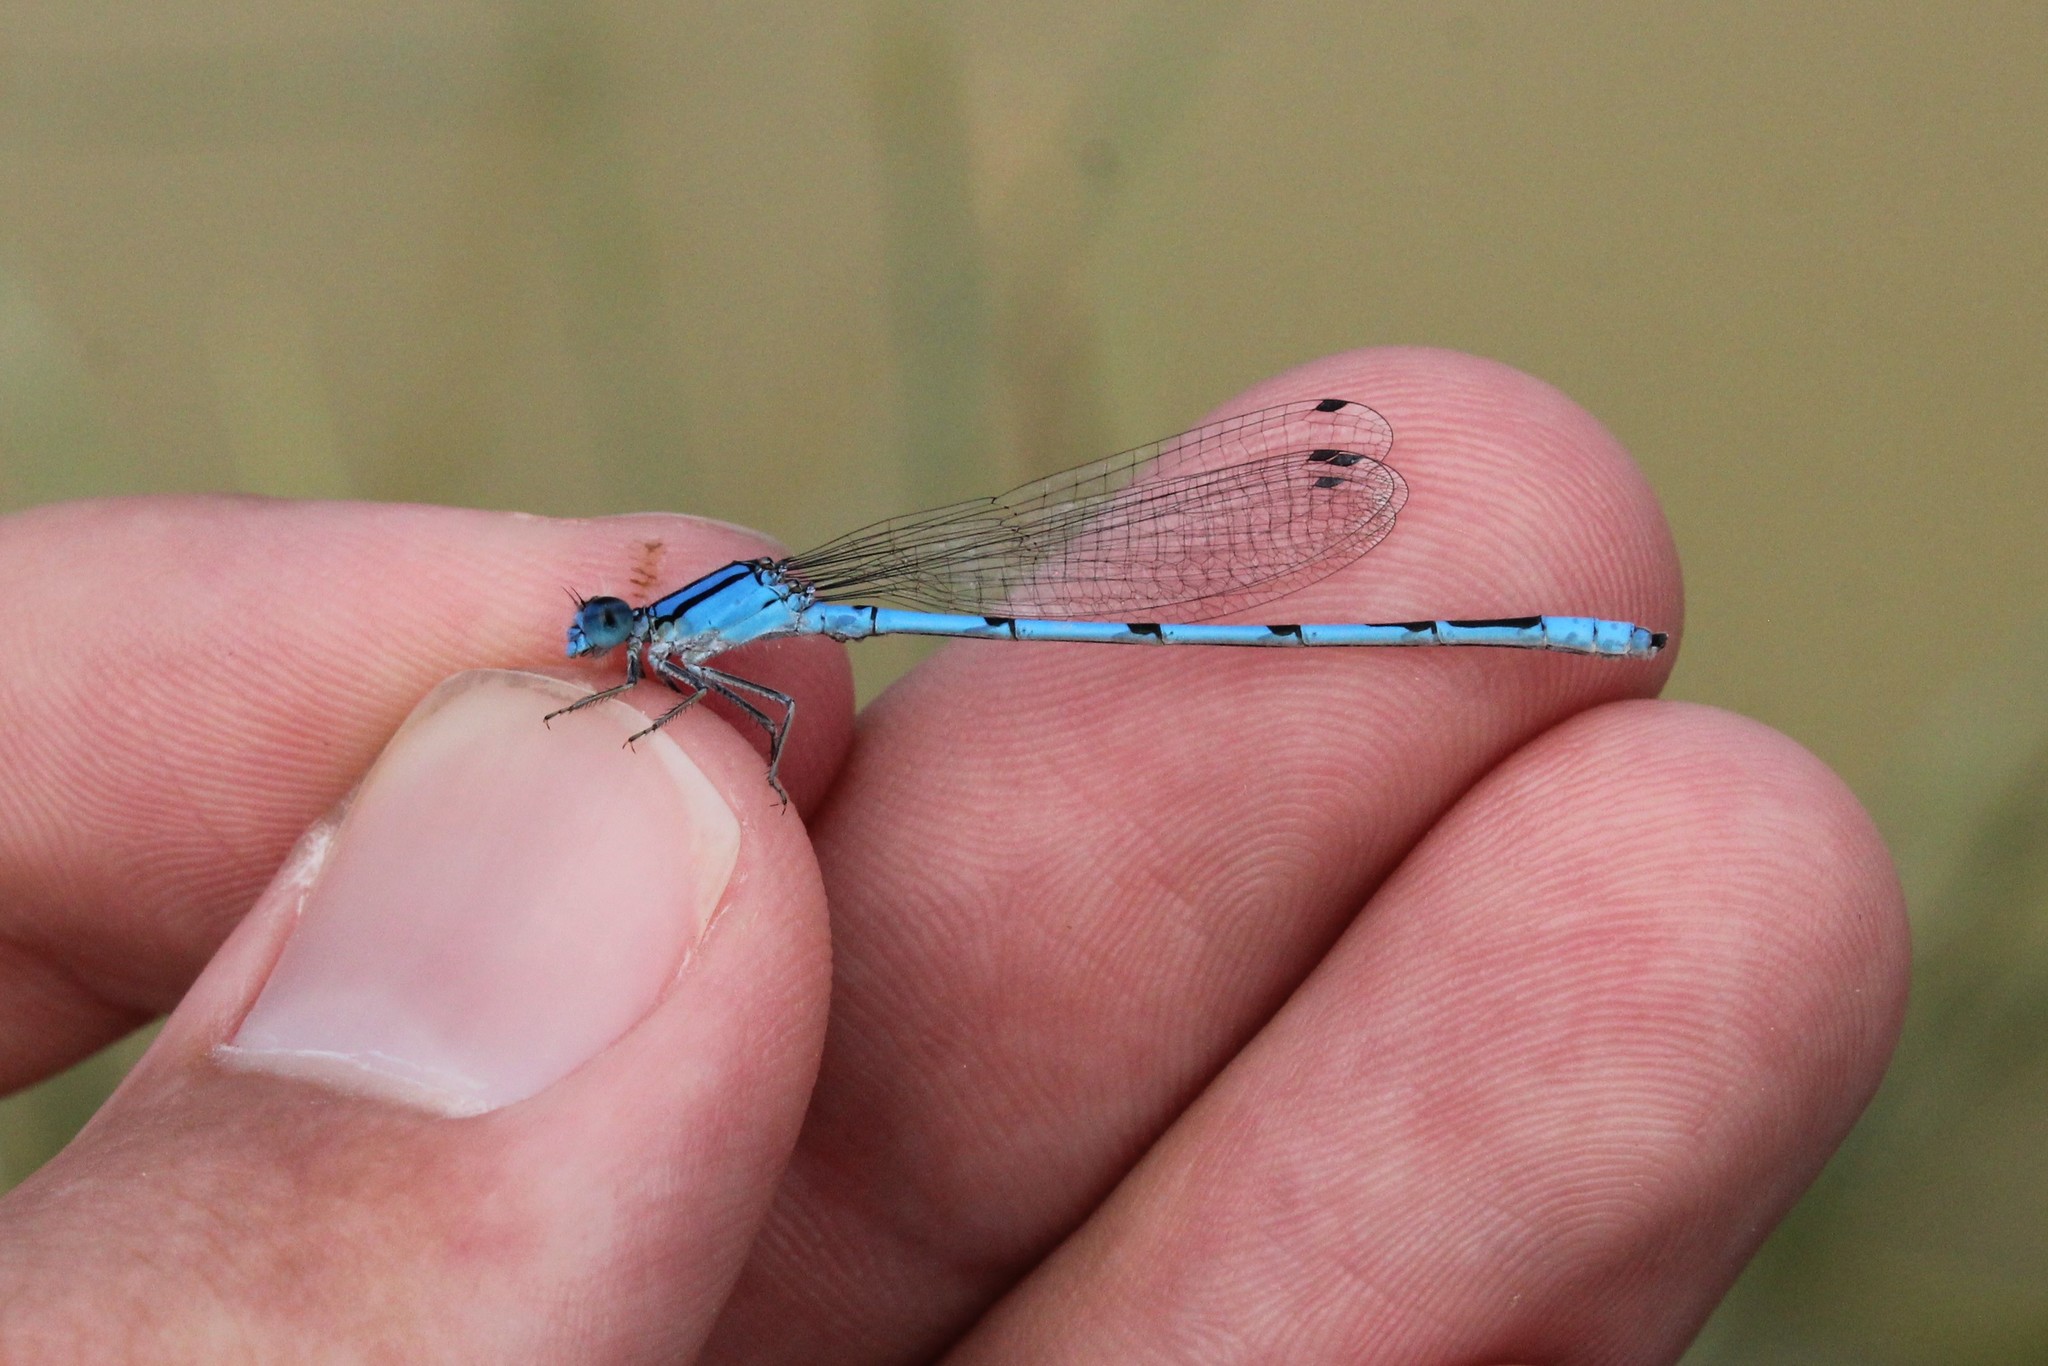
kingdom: Animalia
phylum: Arthropoda
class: Insecta
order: Odonata
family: Coenagrionidae
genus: Enallagma
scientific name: Enallagma civile
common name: Damselfly
